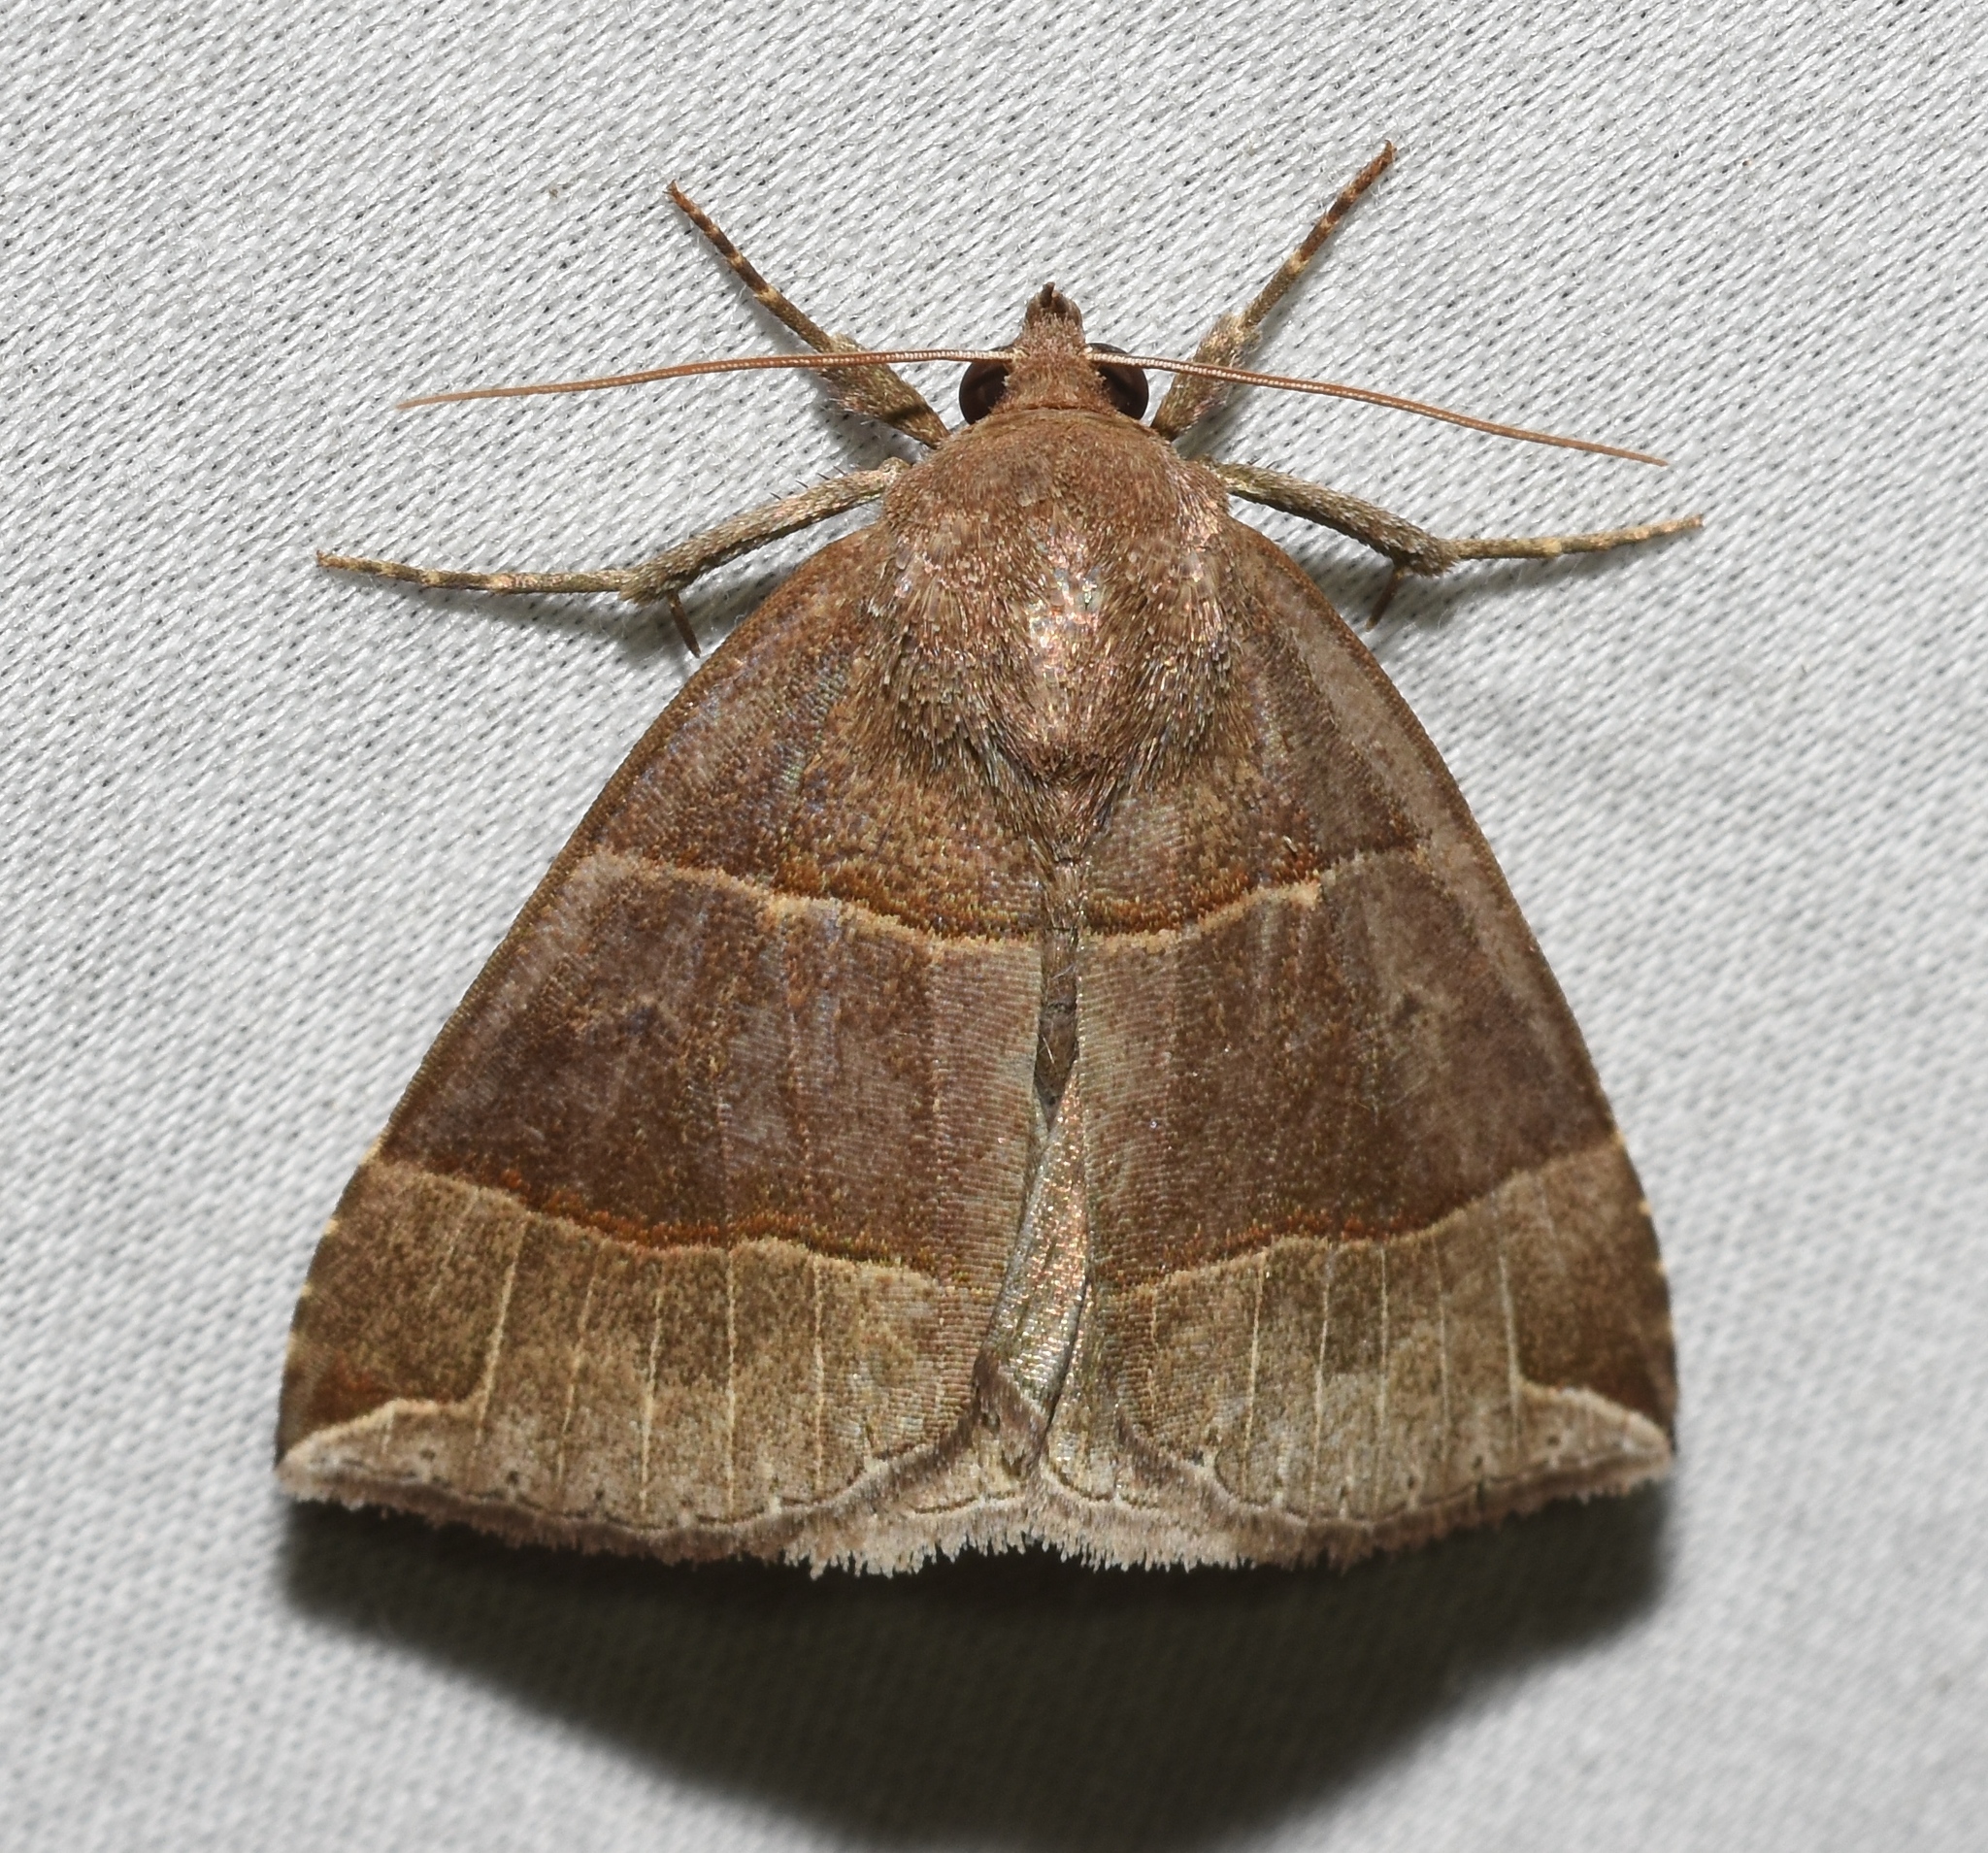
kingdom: Animalia
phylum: Arthropoda
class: Insecta
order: Lepidoptera
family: Erebidae
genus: Parallelia
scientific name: Parallelia bistriaris
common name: Maple looper moth
